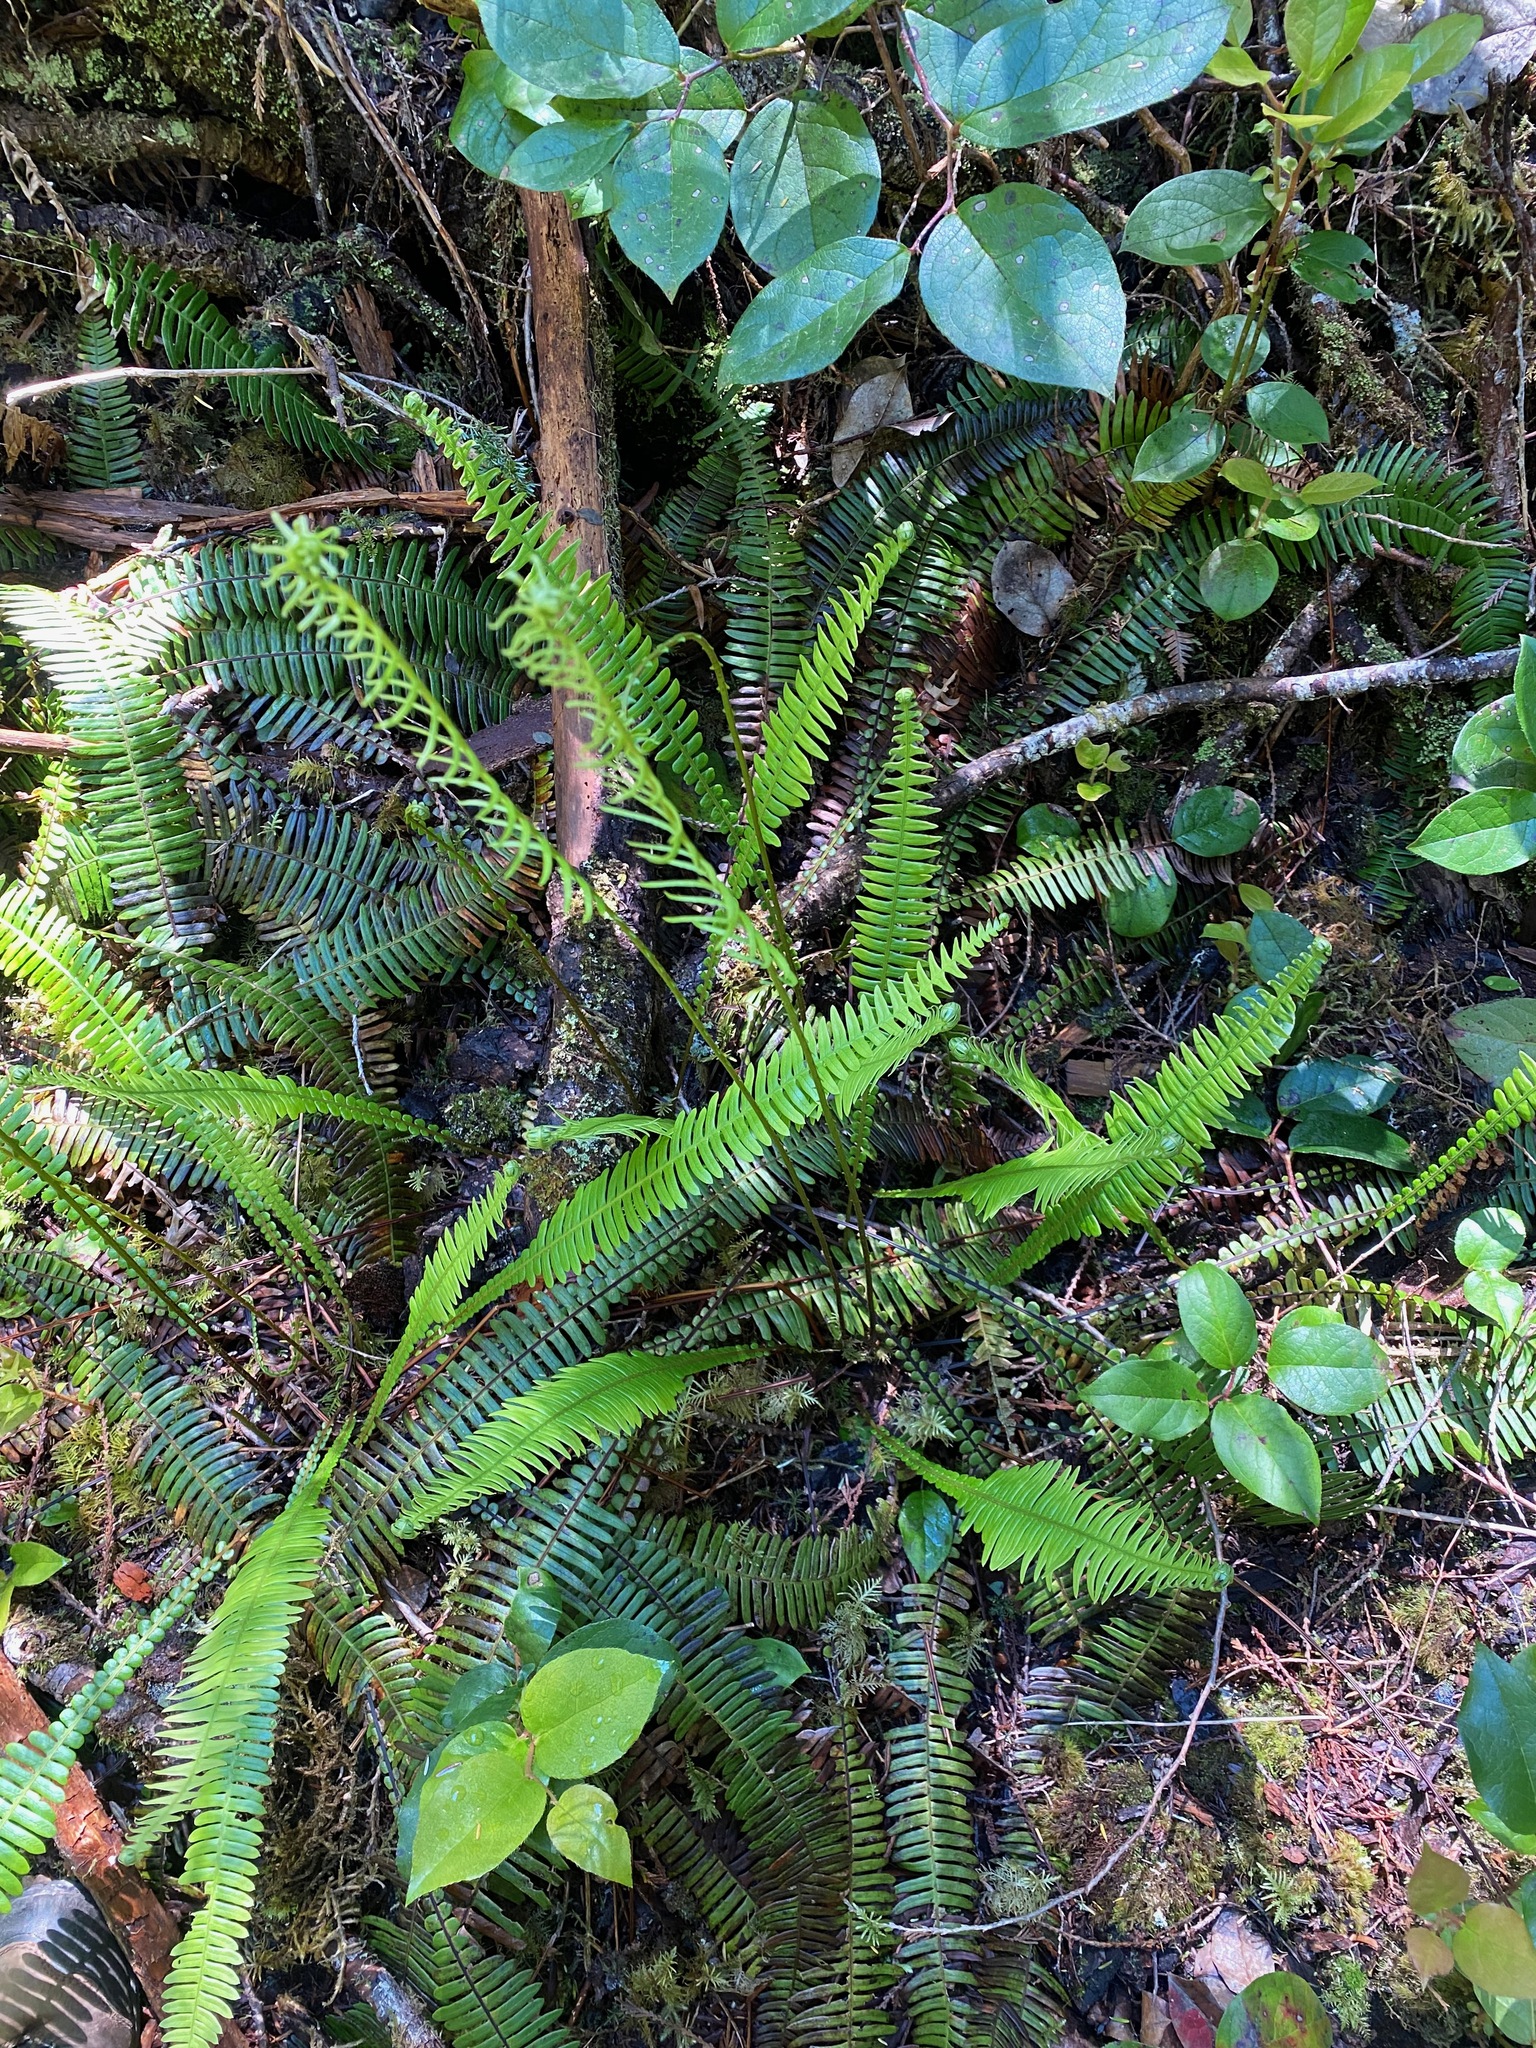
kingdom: Plantae
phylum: Tracheophyta
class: Polypodiopsida
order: Polypodiales
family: Blechnaceae
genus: Struthiopteris
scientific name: Struthiopteris spicant
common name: Deer fern
